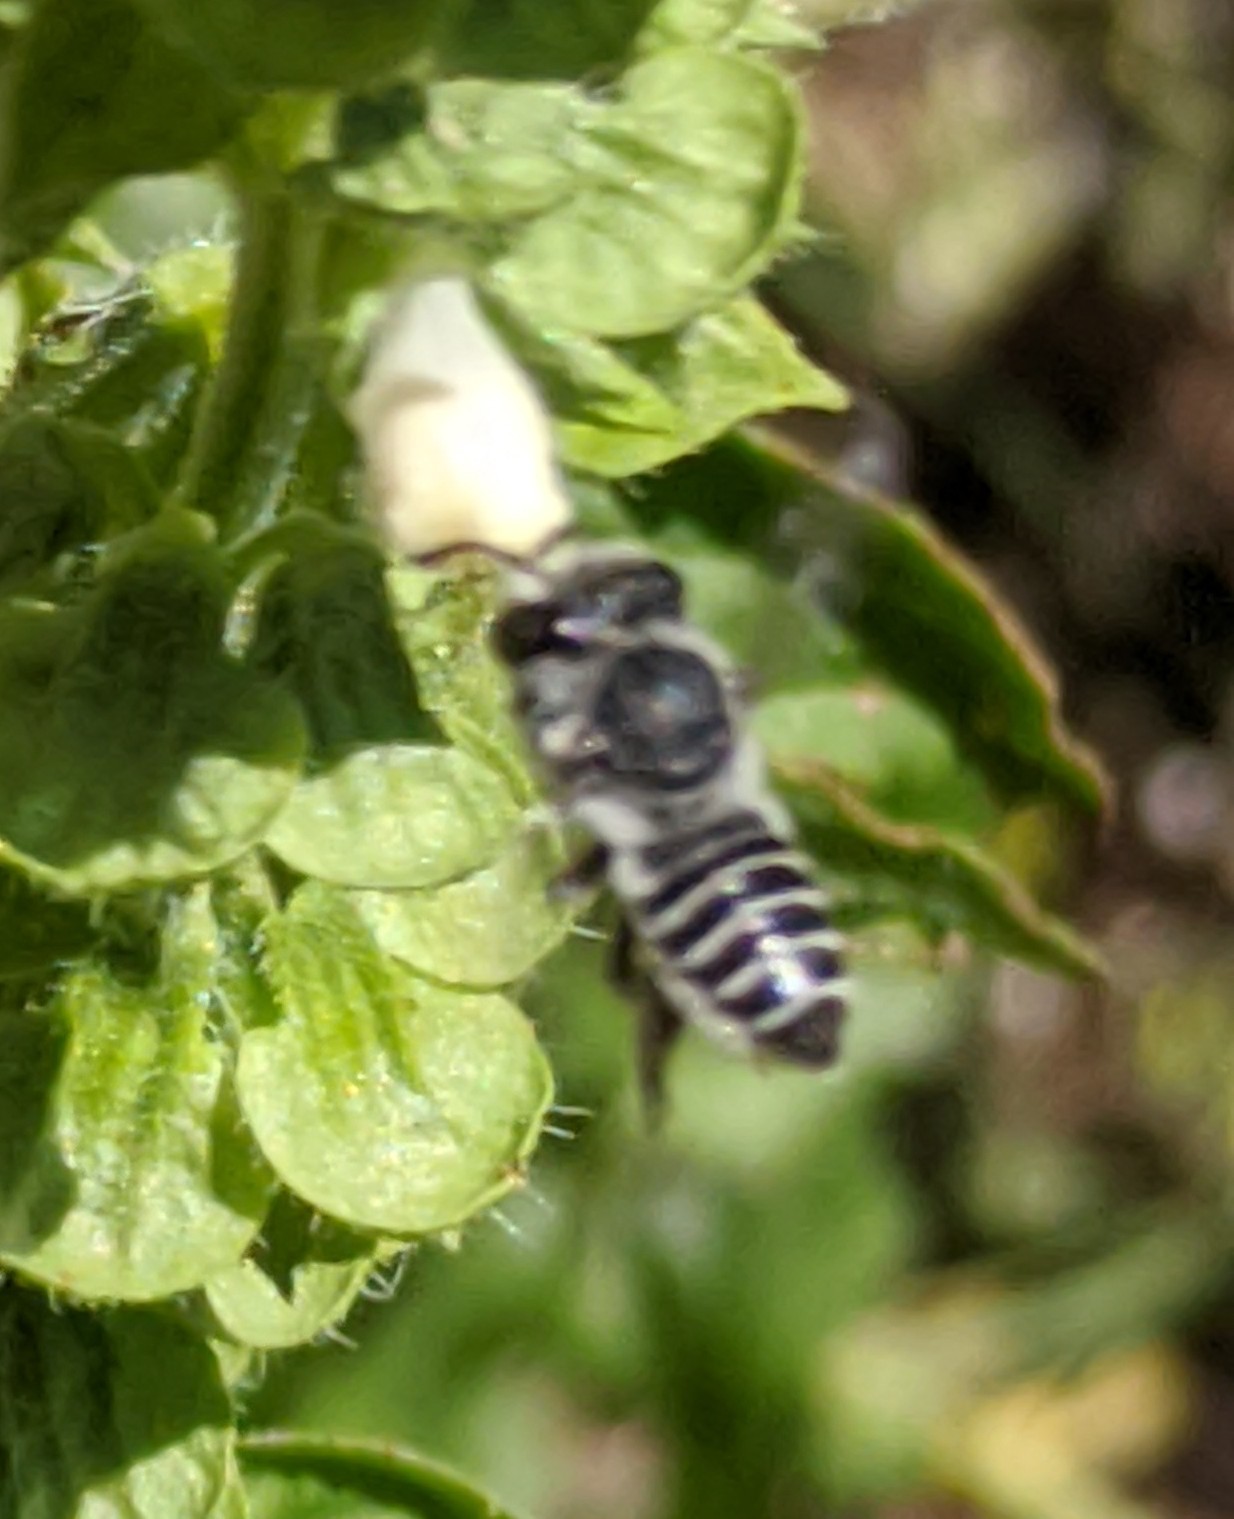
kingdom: Animalia
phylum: Arthropoda
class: Insecta
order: Hymenoptera
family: Megachilidae
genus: Megachile
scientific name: Megachile
